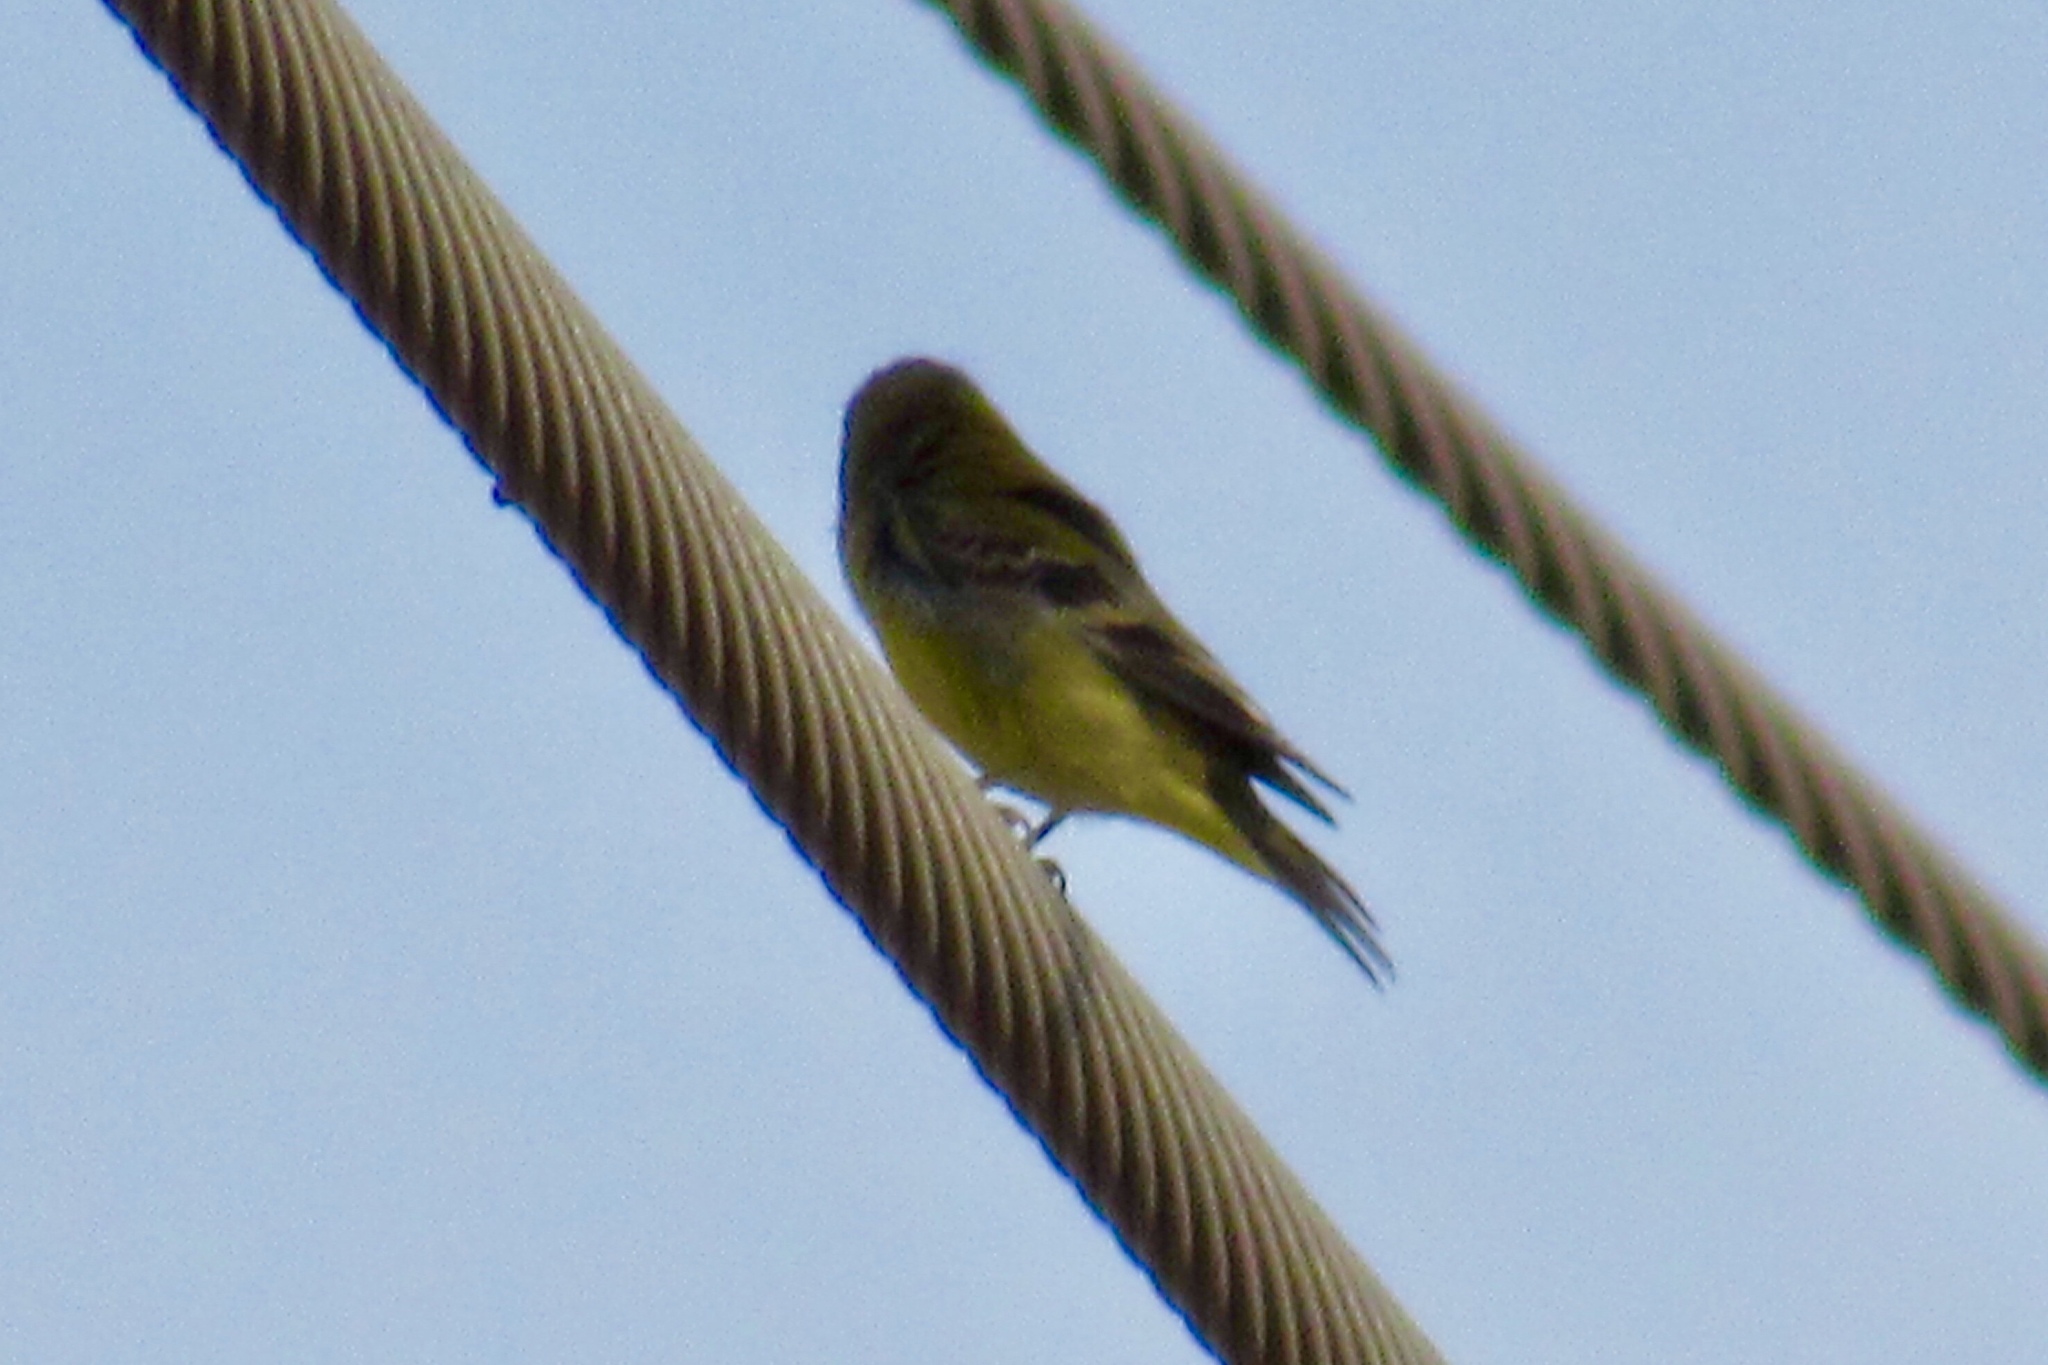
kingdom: Animalia
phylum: Chordata
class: Aves
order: Passeriformes
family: Fringillidae
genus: Spinus
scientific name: Spinus psaltria
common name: Lesser goldfinch
